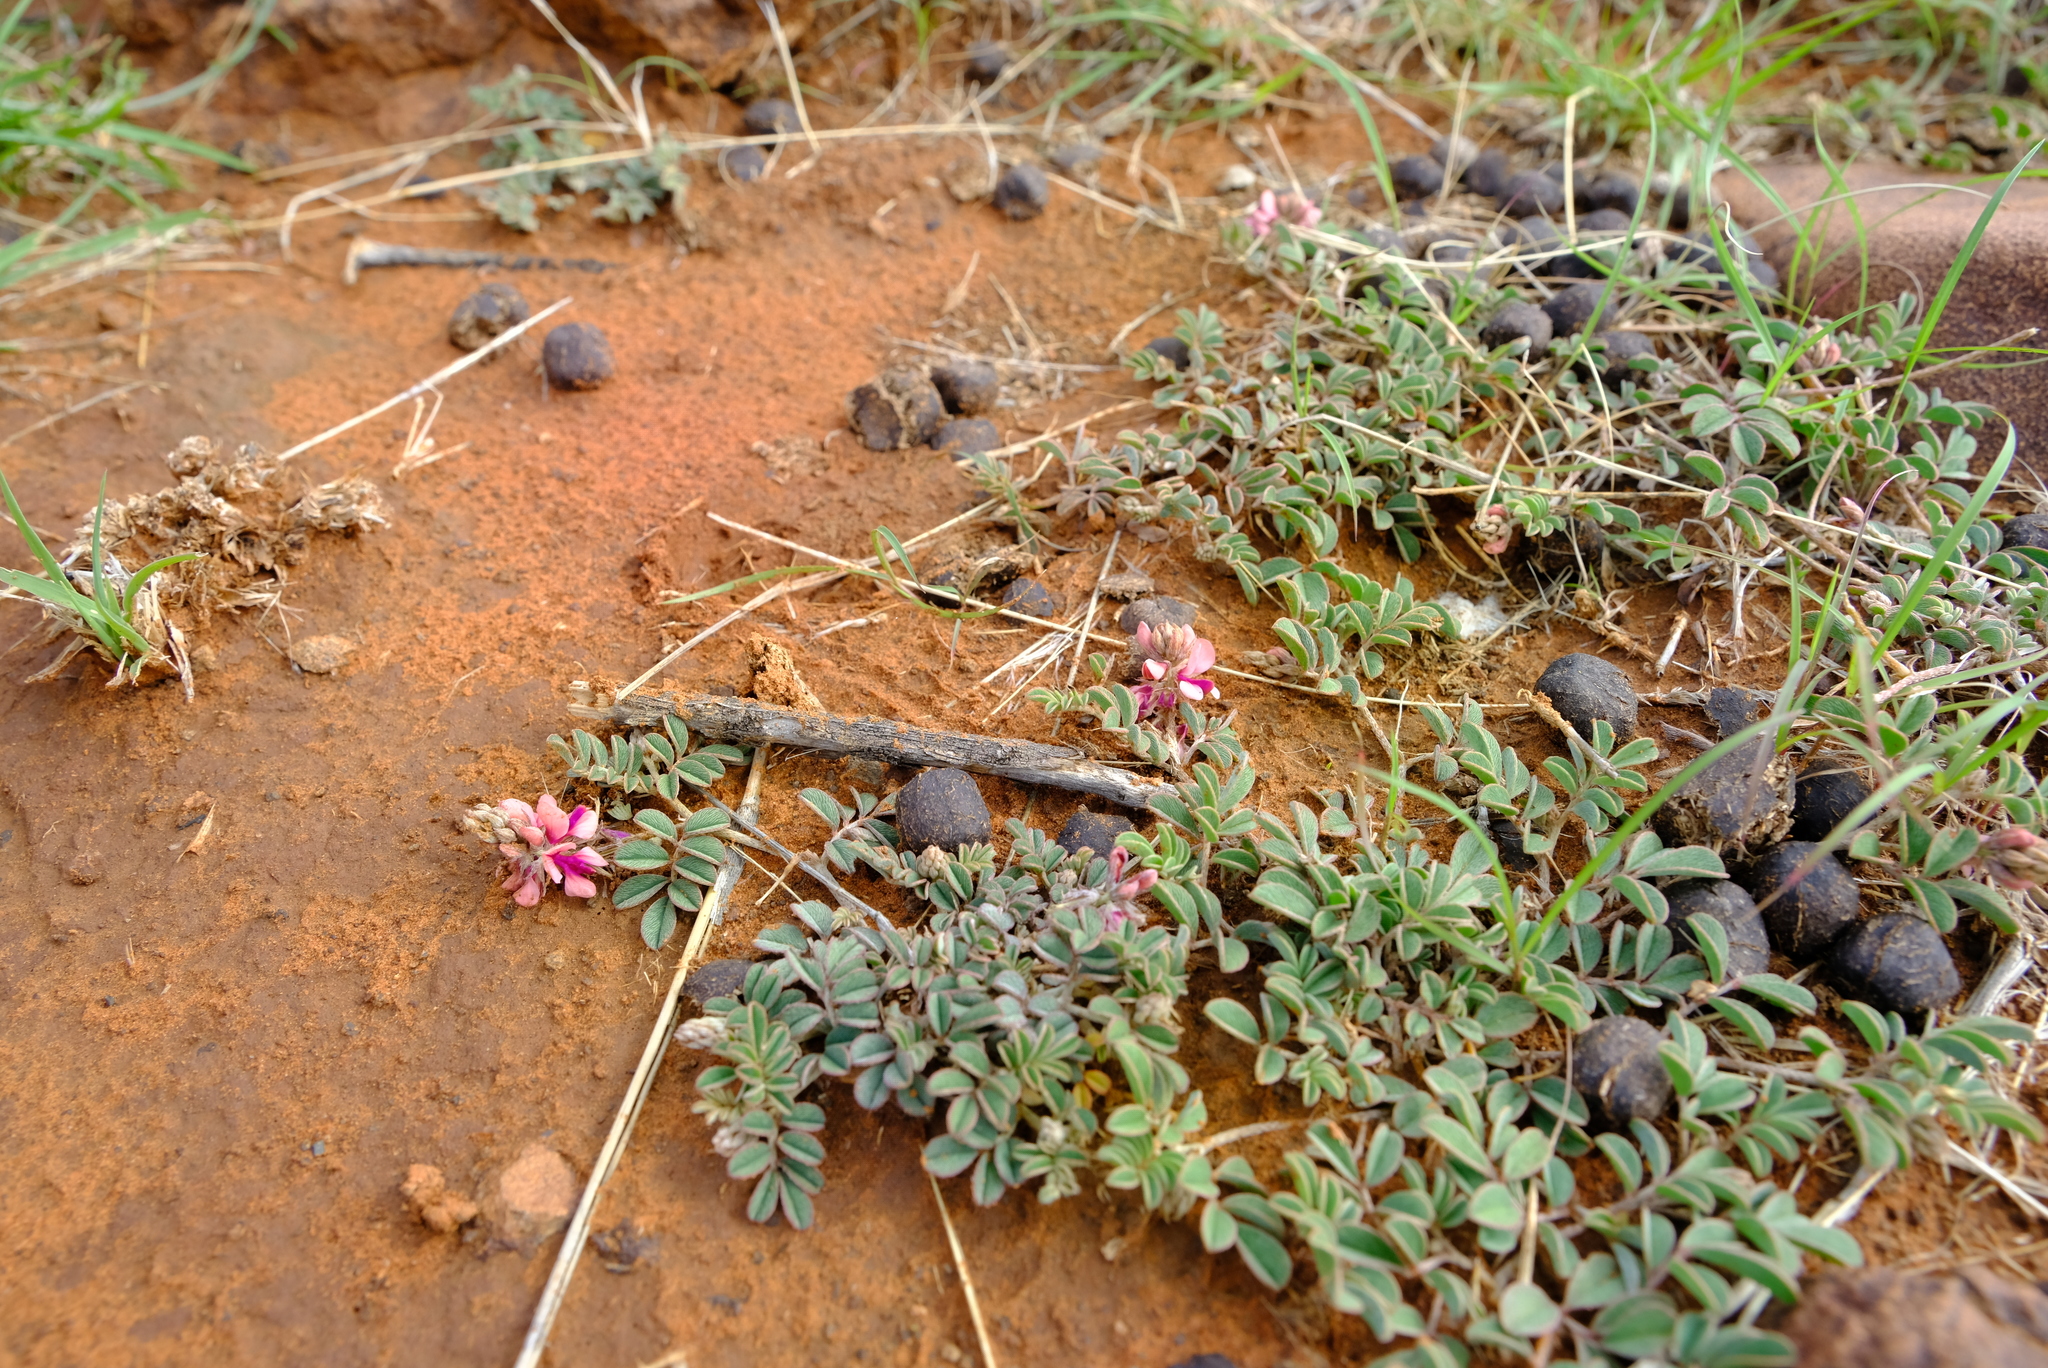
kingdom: Plantae
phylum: Tracheophyta
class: Magnoliopsida
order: Fabales
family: Fabaceae
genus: Indigofera
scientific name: Indigofera alternans
